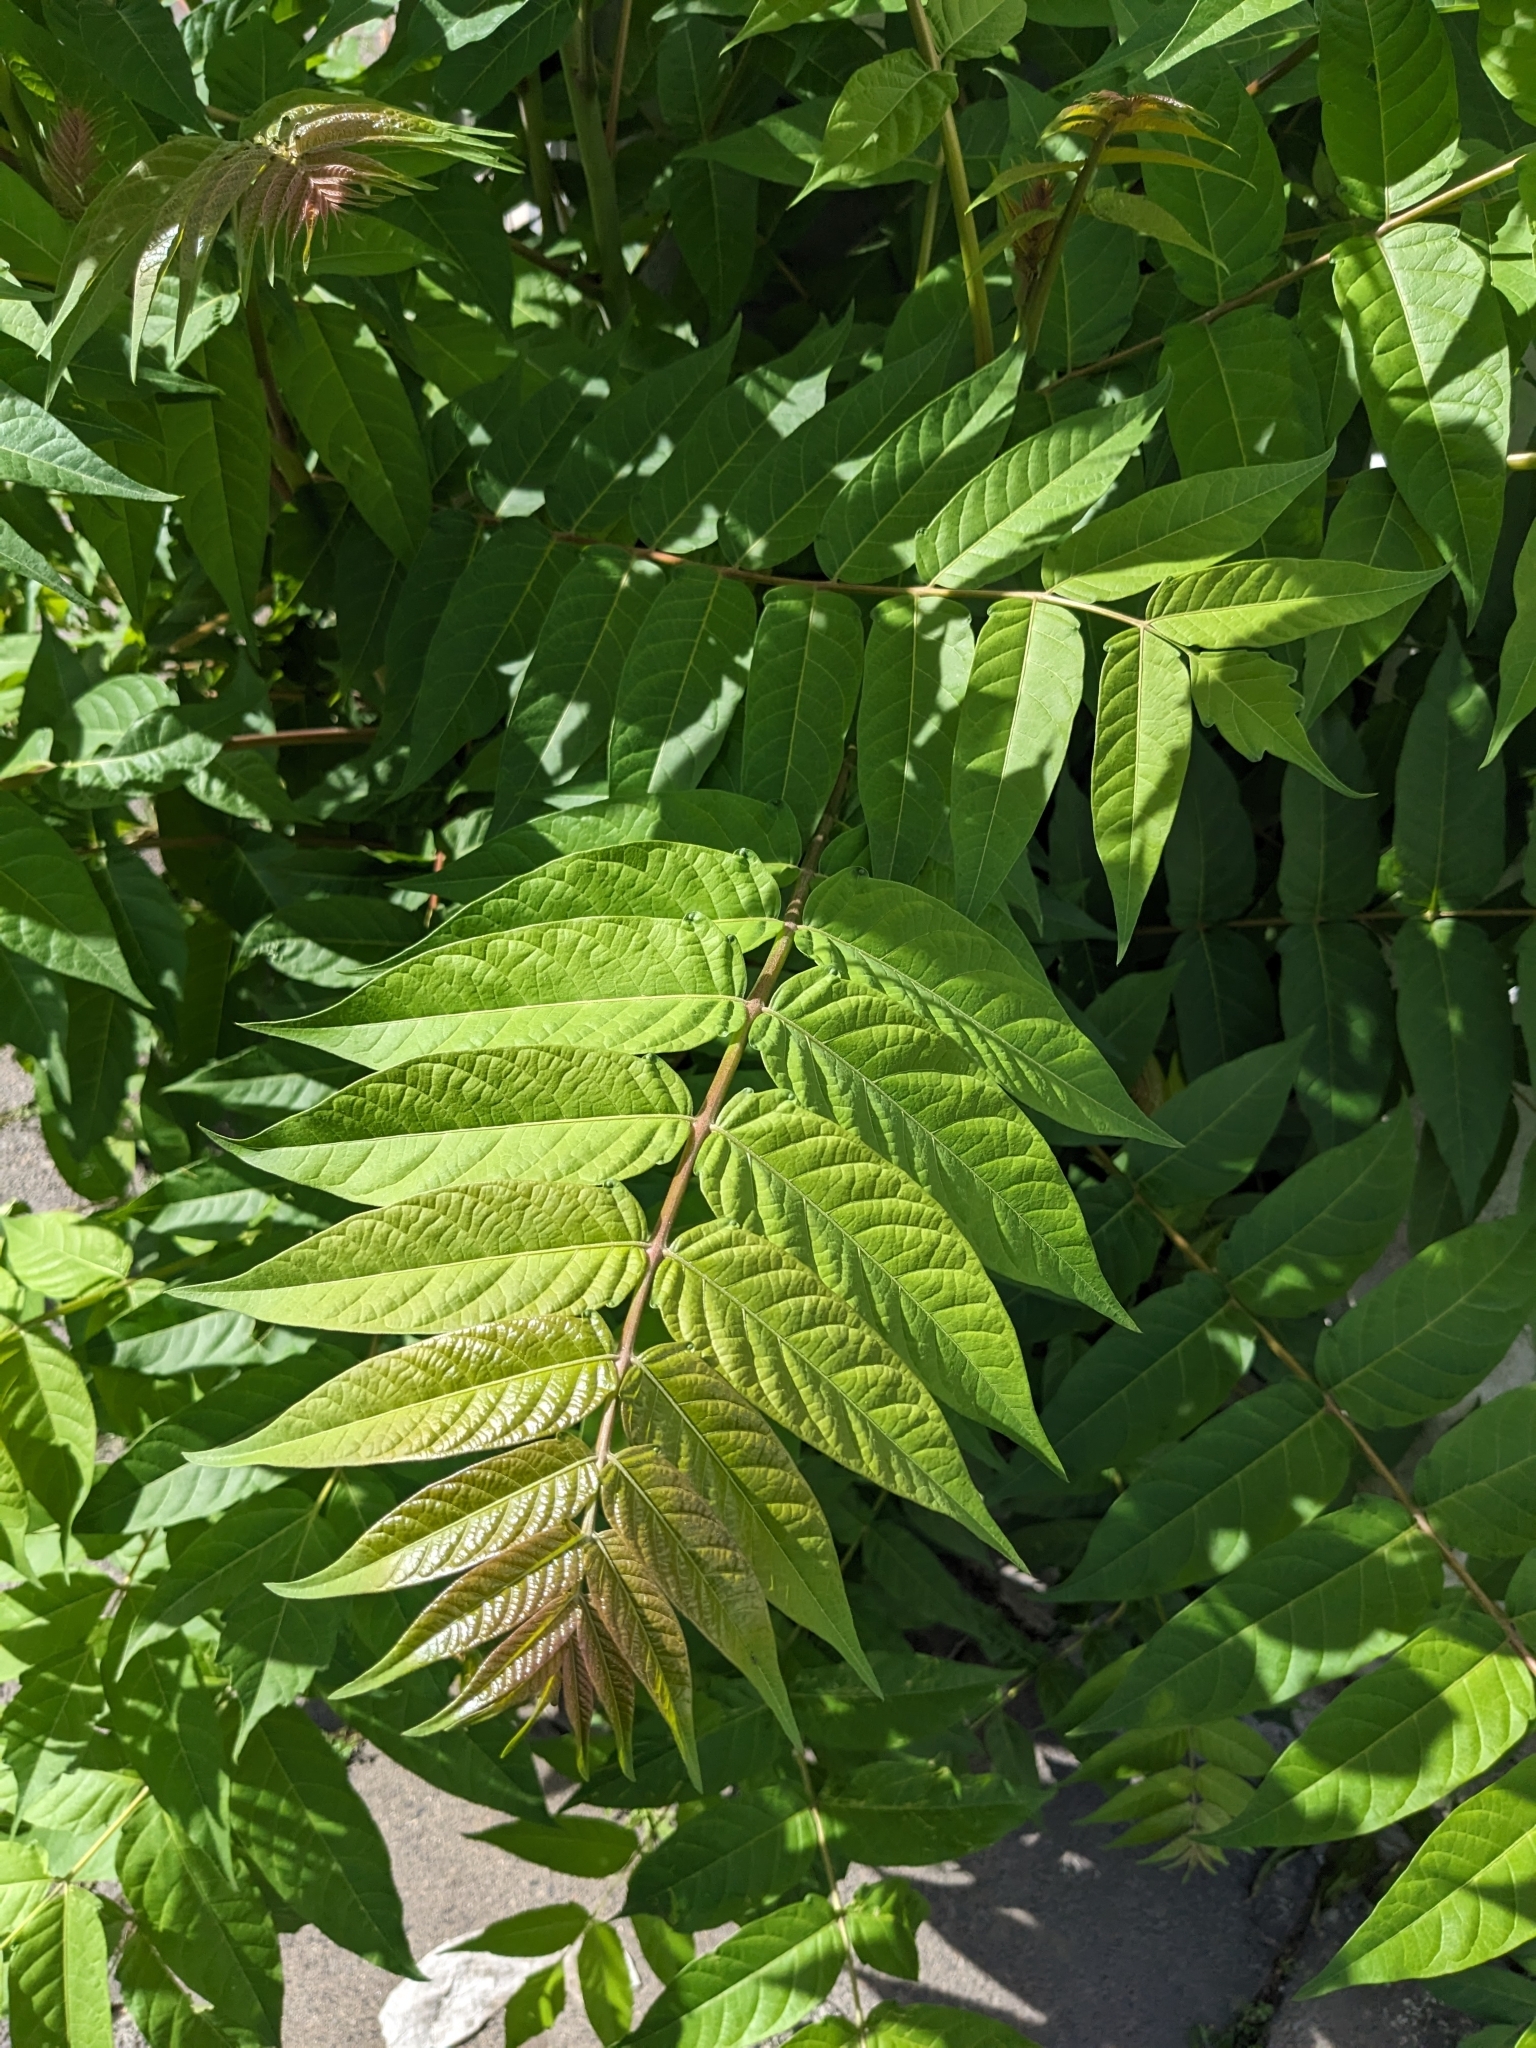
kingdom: Plantae
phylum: Tracheophyta
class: Magnoliopsida
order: Sapindales
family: Simaroubaceae
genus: Ailanthus
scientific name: Ailanthus altissima
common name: Tree-of-heaven
